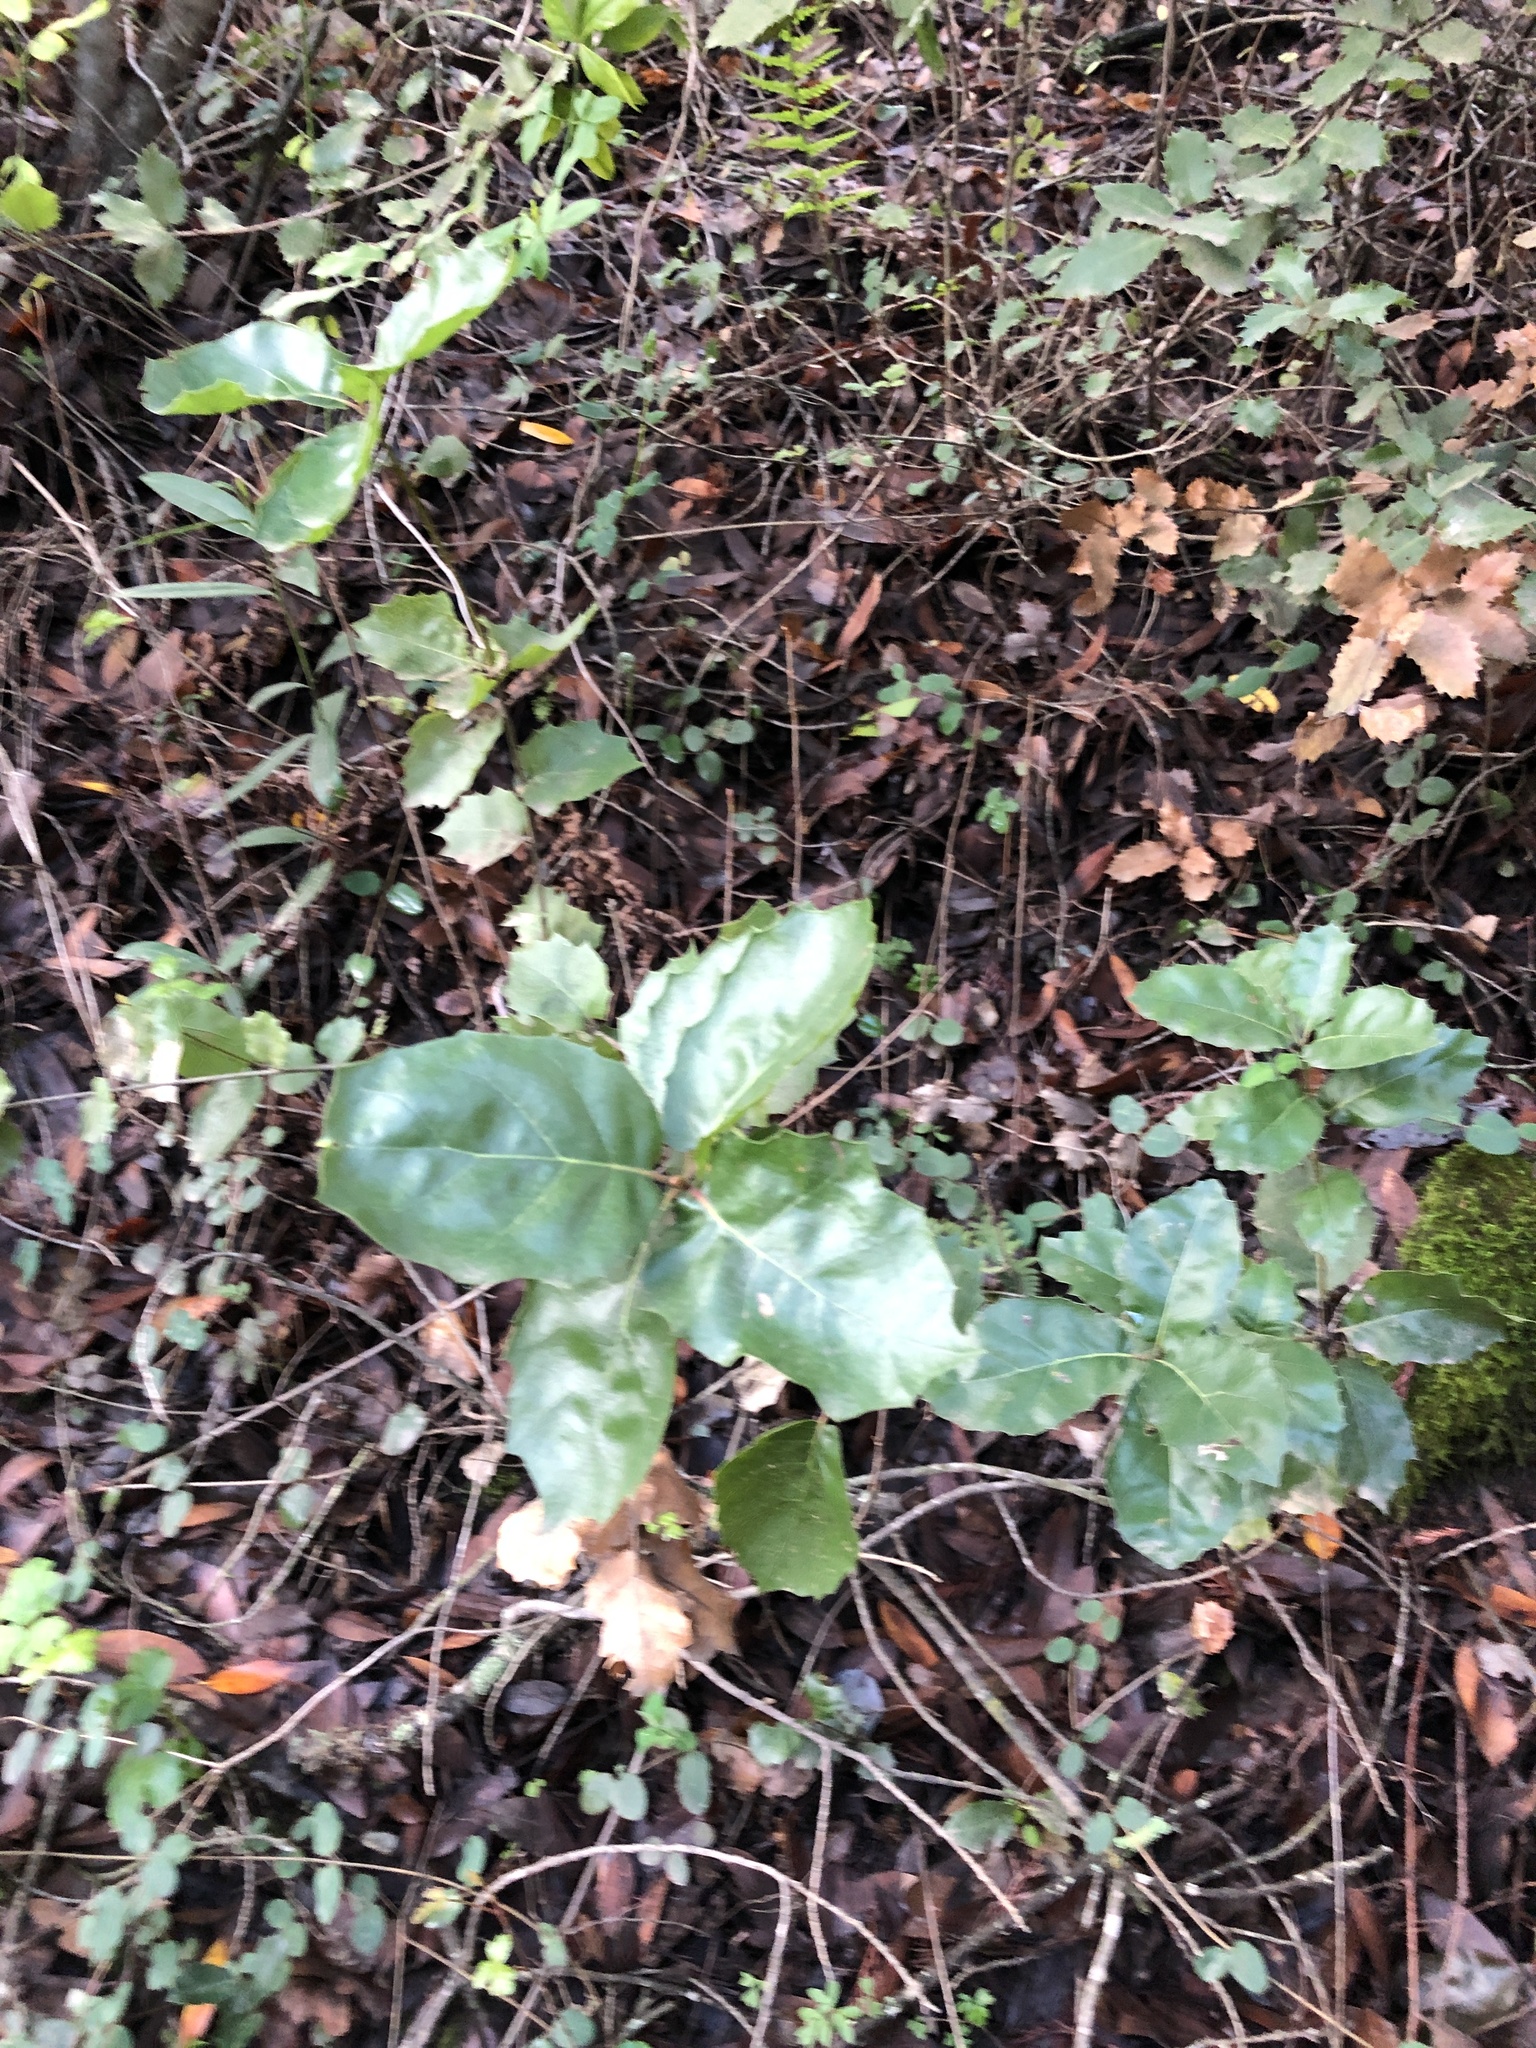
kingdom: Plantae
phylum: Tracheophyta
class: Magnoliopsida
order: Fagales
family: Fagaceae
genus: Quercus
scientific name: Quercus agrifolia
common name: California live oak
